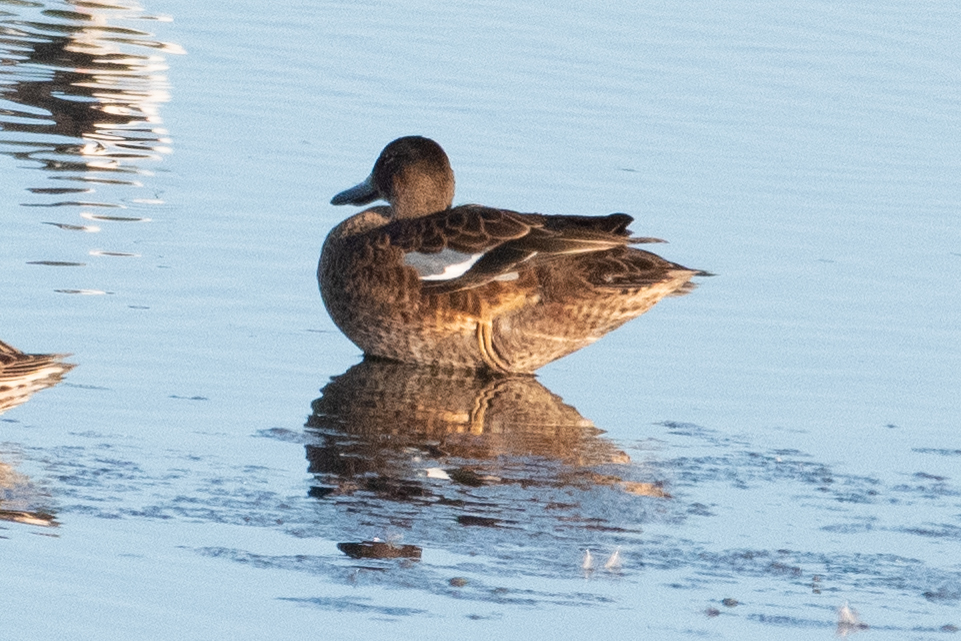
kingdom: Animalia
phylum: Chordata
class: Aves
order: Anseriformes
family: Anatidae
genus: Spatula
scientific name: Spatula clypeata
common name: Northern shoveler
